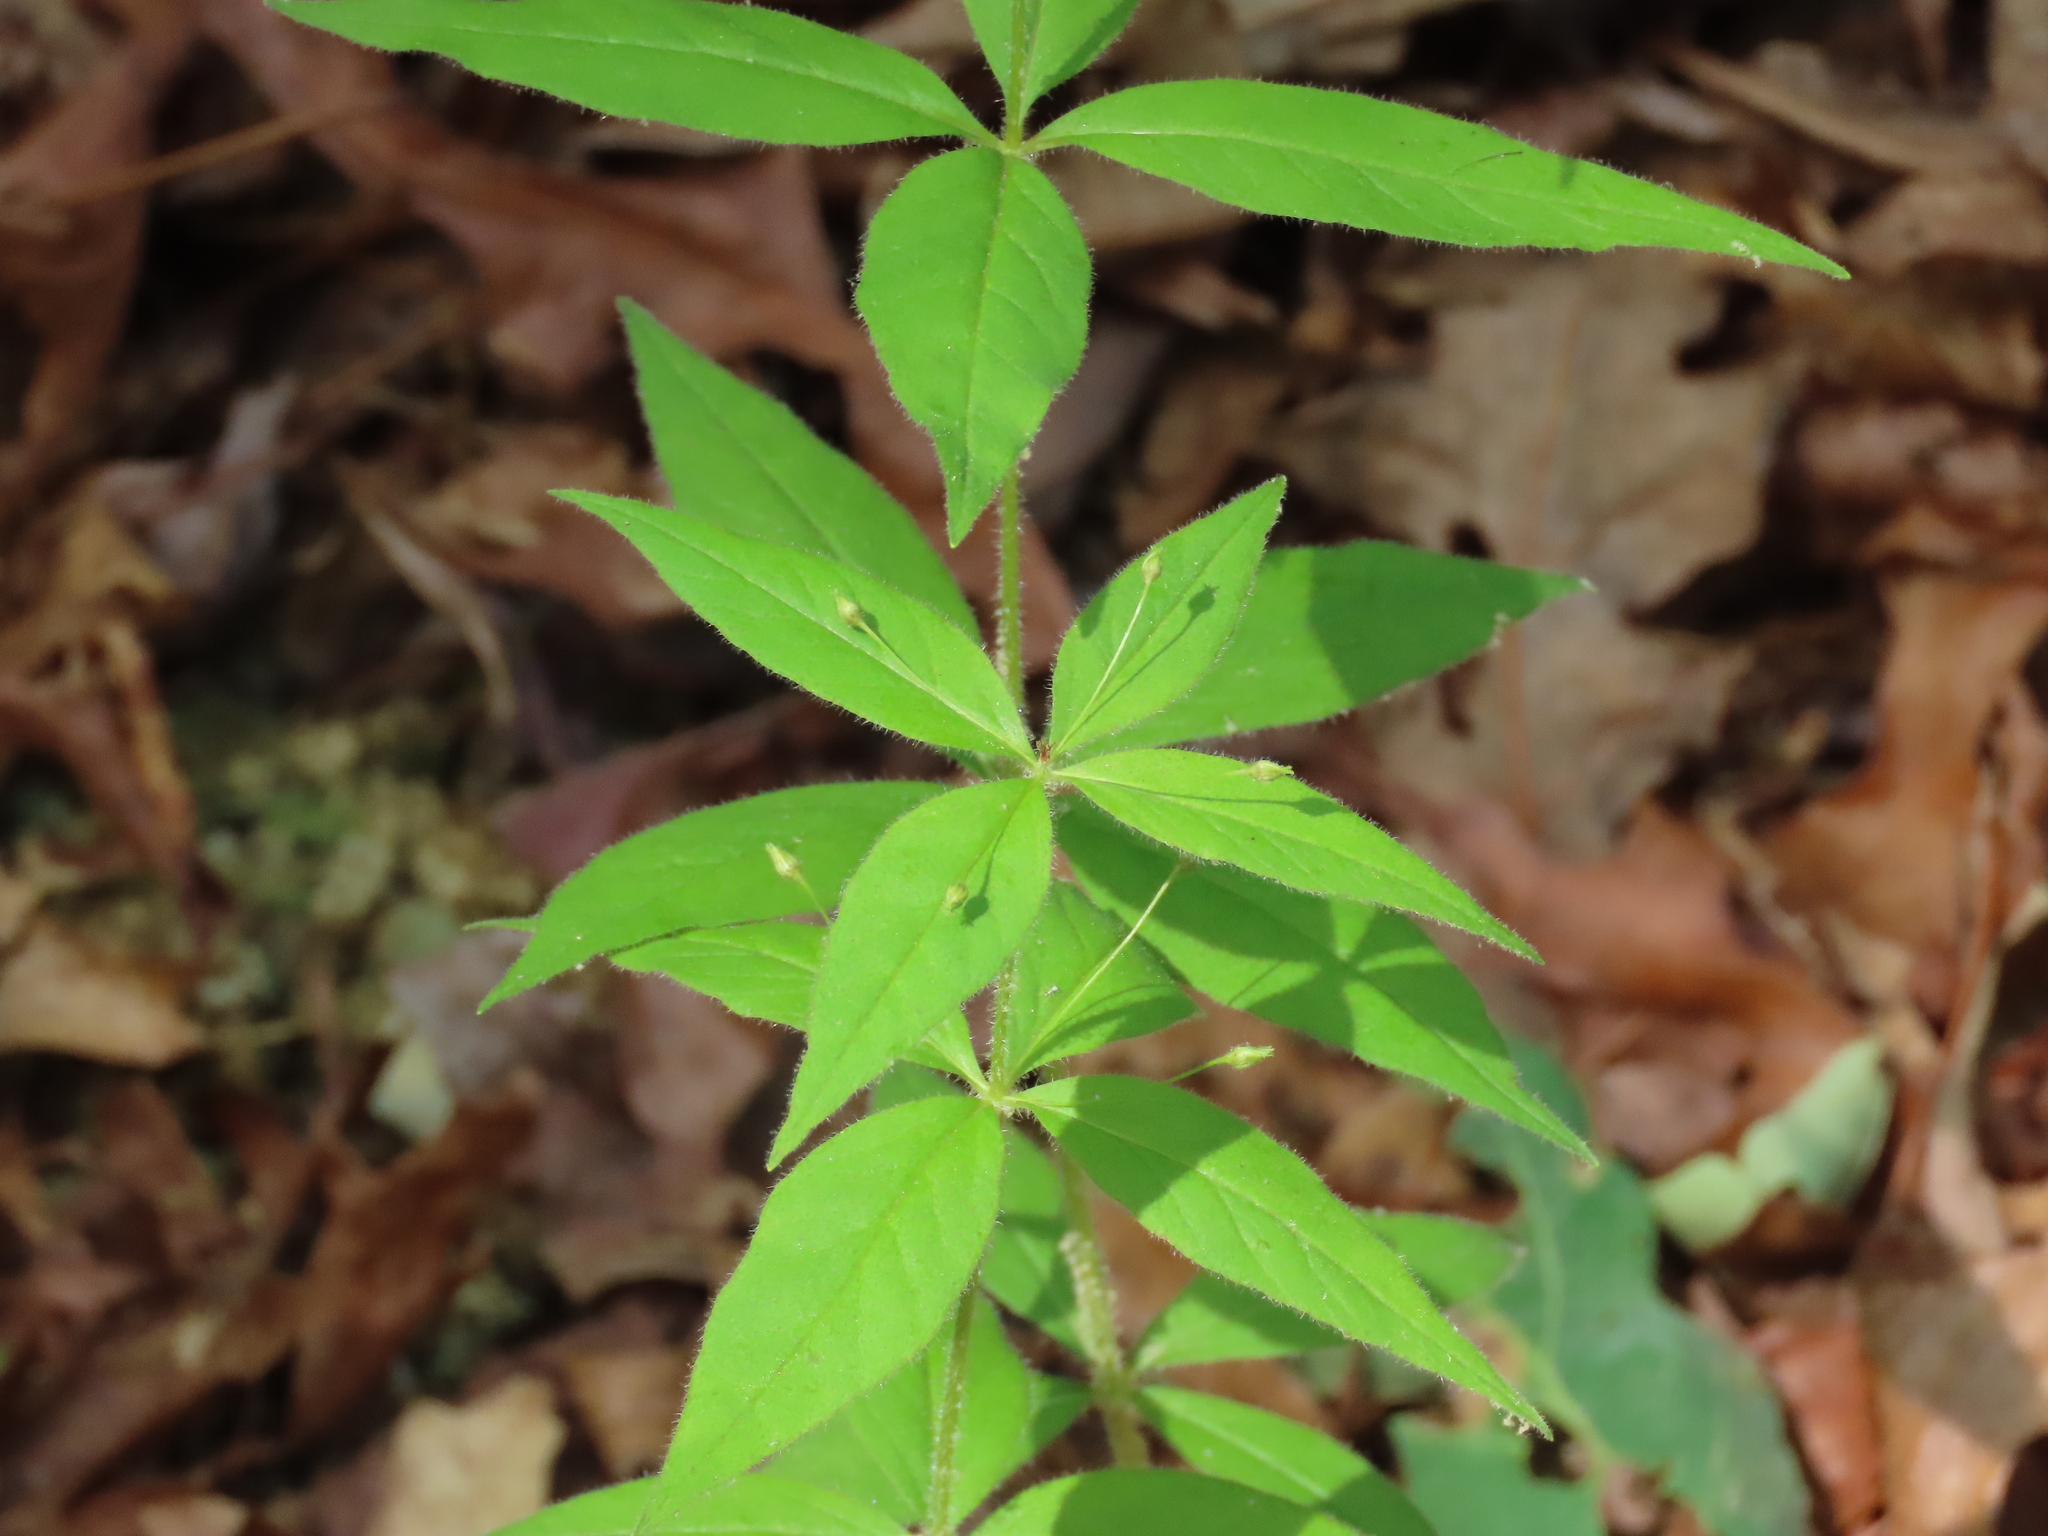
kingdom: Plantae
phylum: Tracheophyta
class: Magnoliopsida
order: Ericales
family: Primulaceae
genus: Lysimachia
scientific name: Lysimachia quadrifolia
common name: Whorled loosestrife
